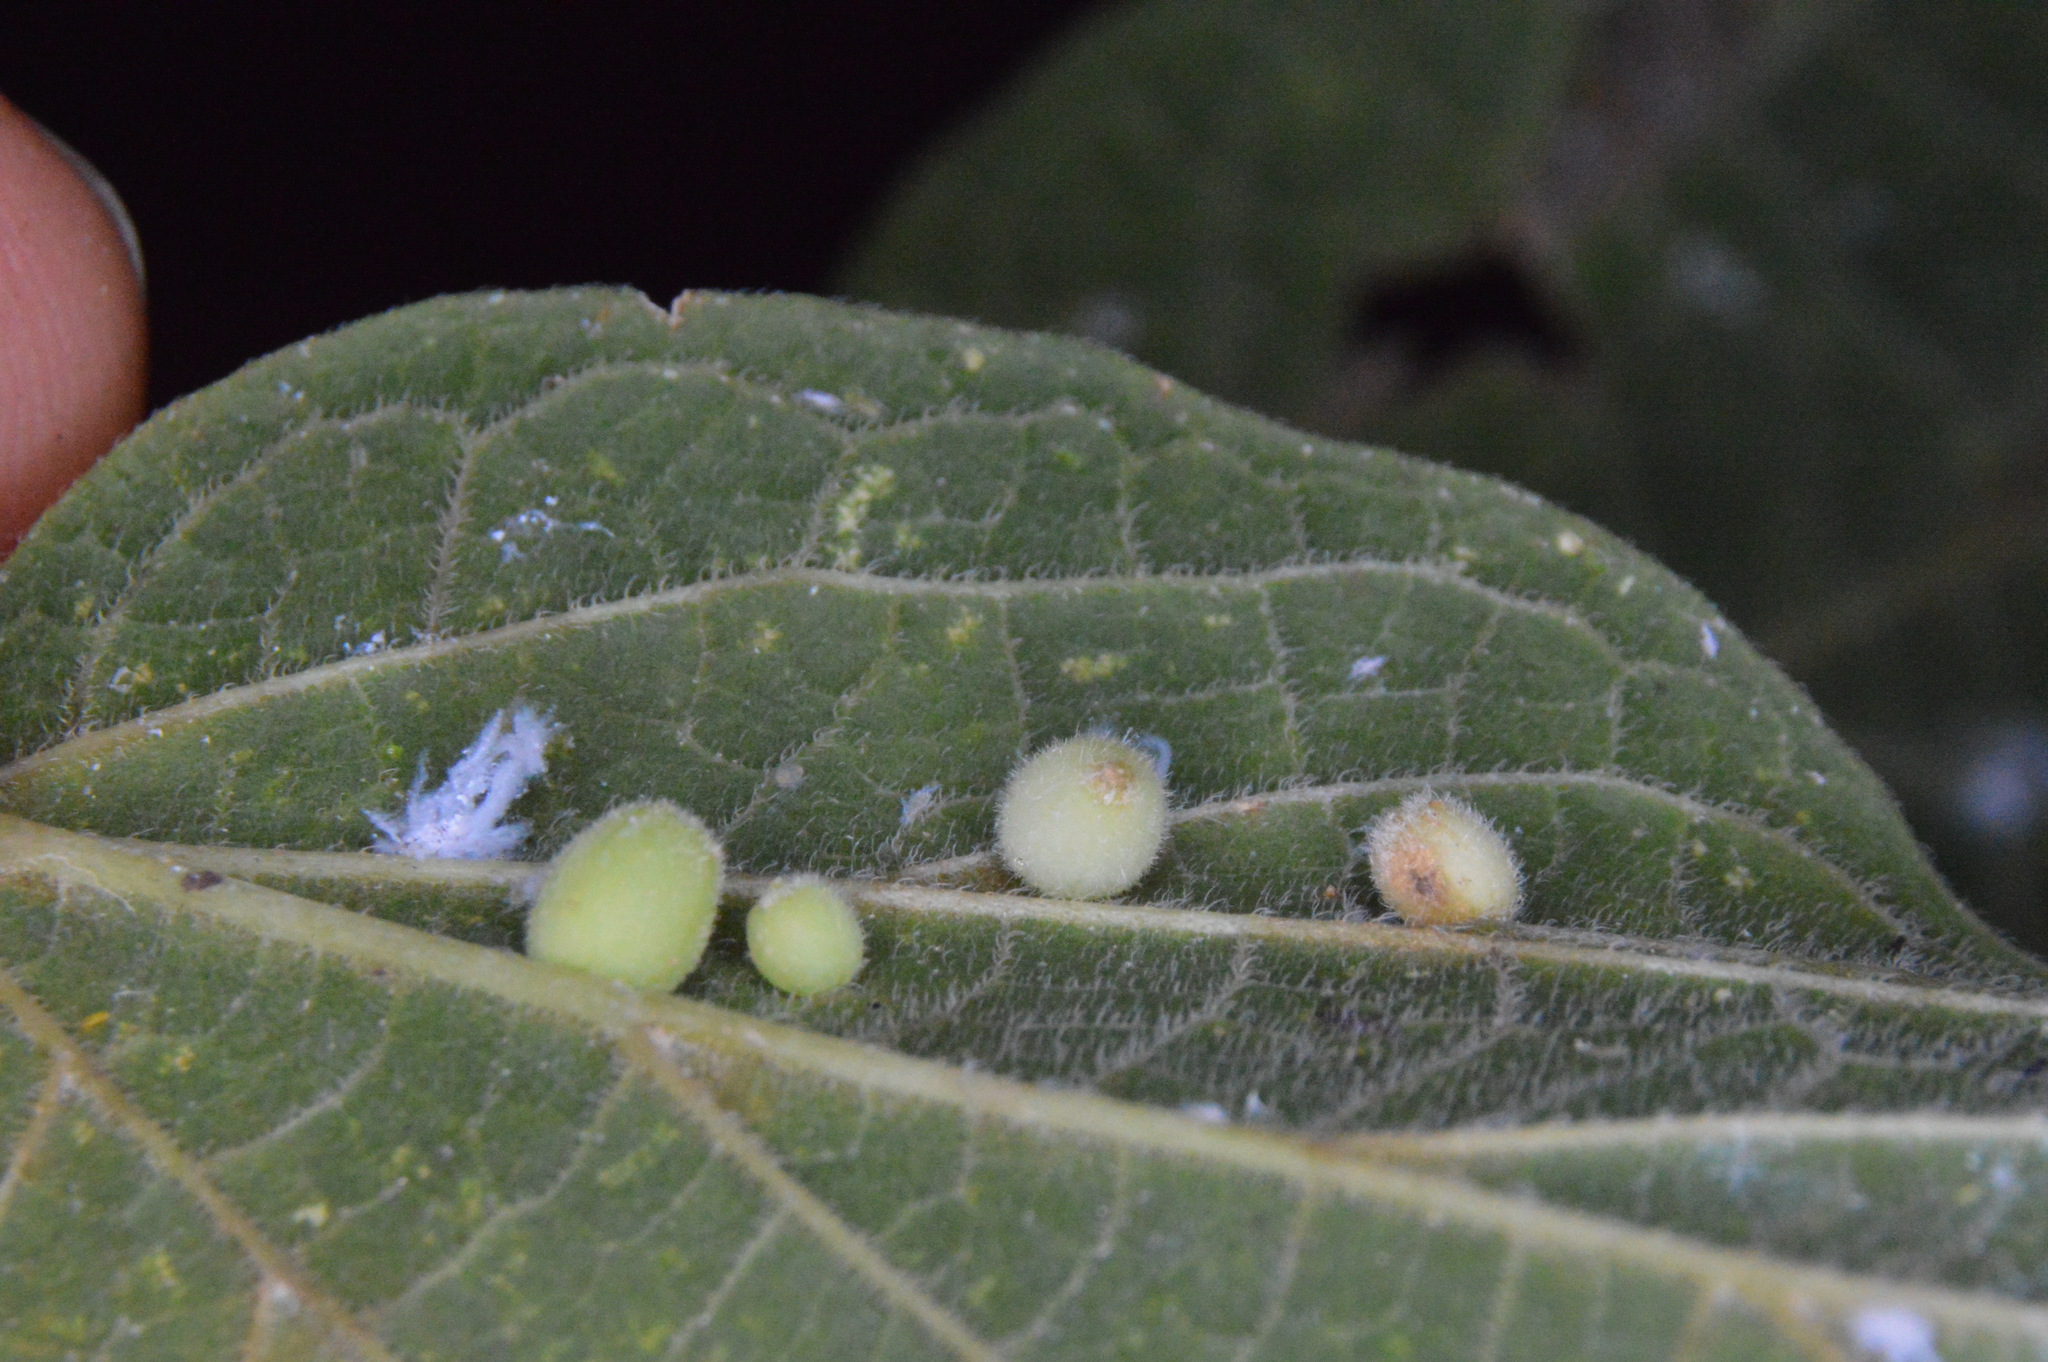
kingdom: Animalia
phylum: Arthropoda
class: Insecta
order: Diptera
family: Cecidomyiidae
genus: Celticecis
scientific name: Celticecis globosa
